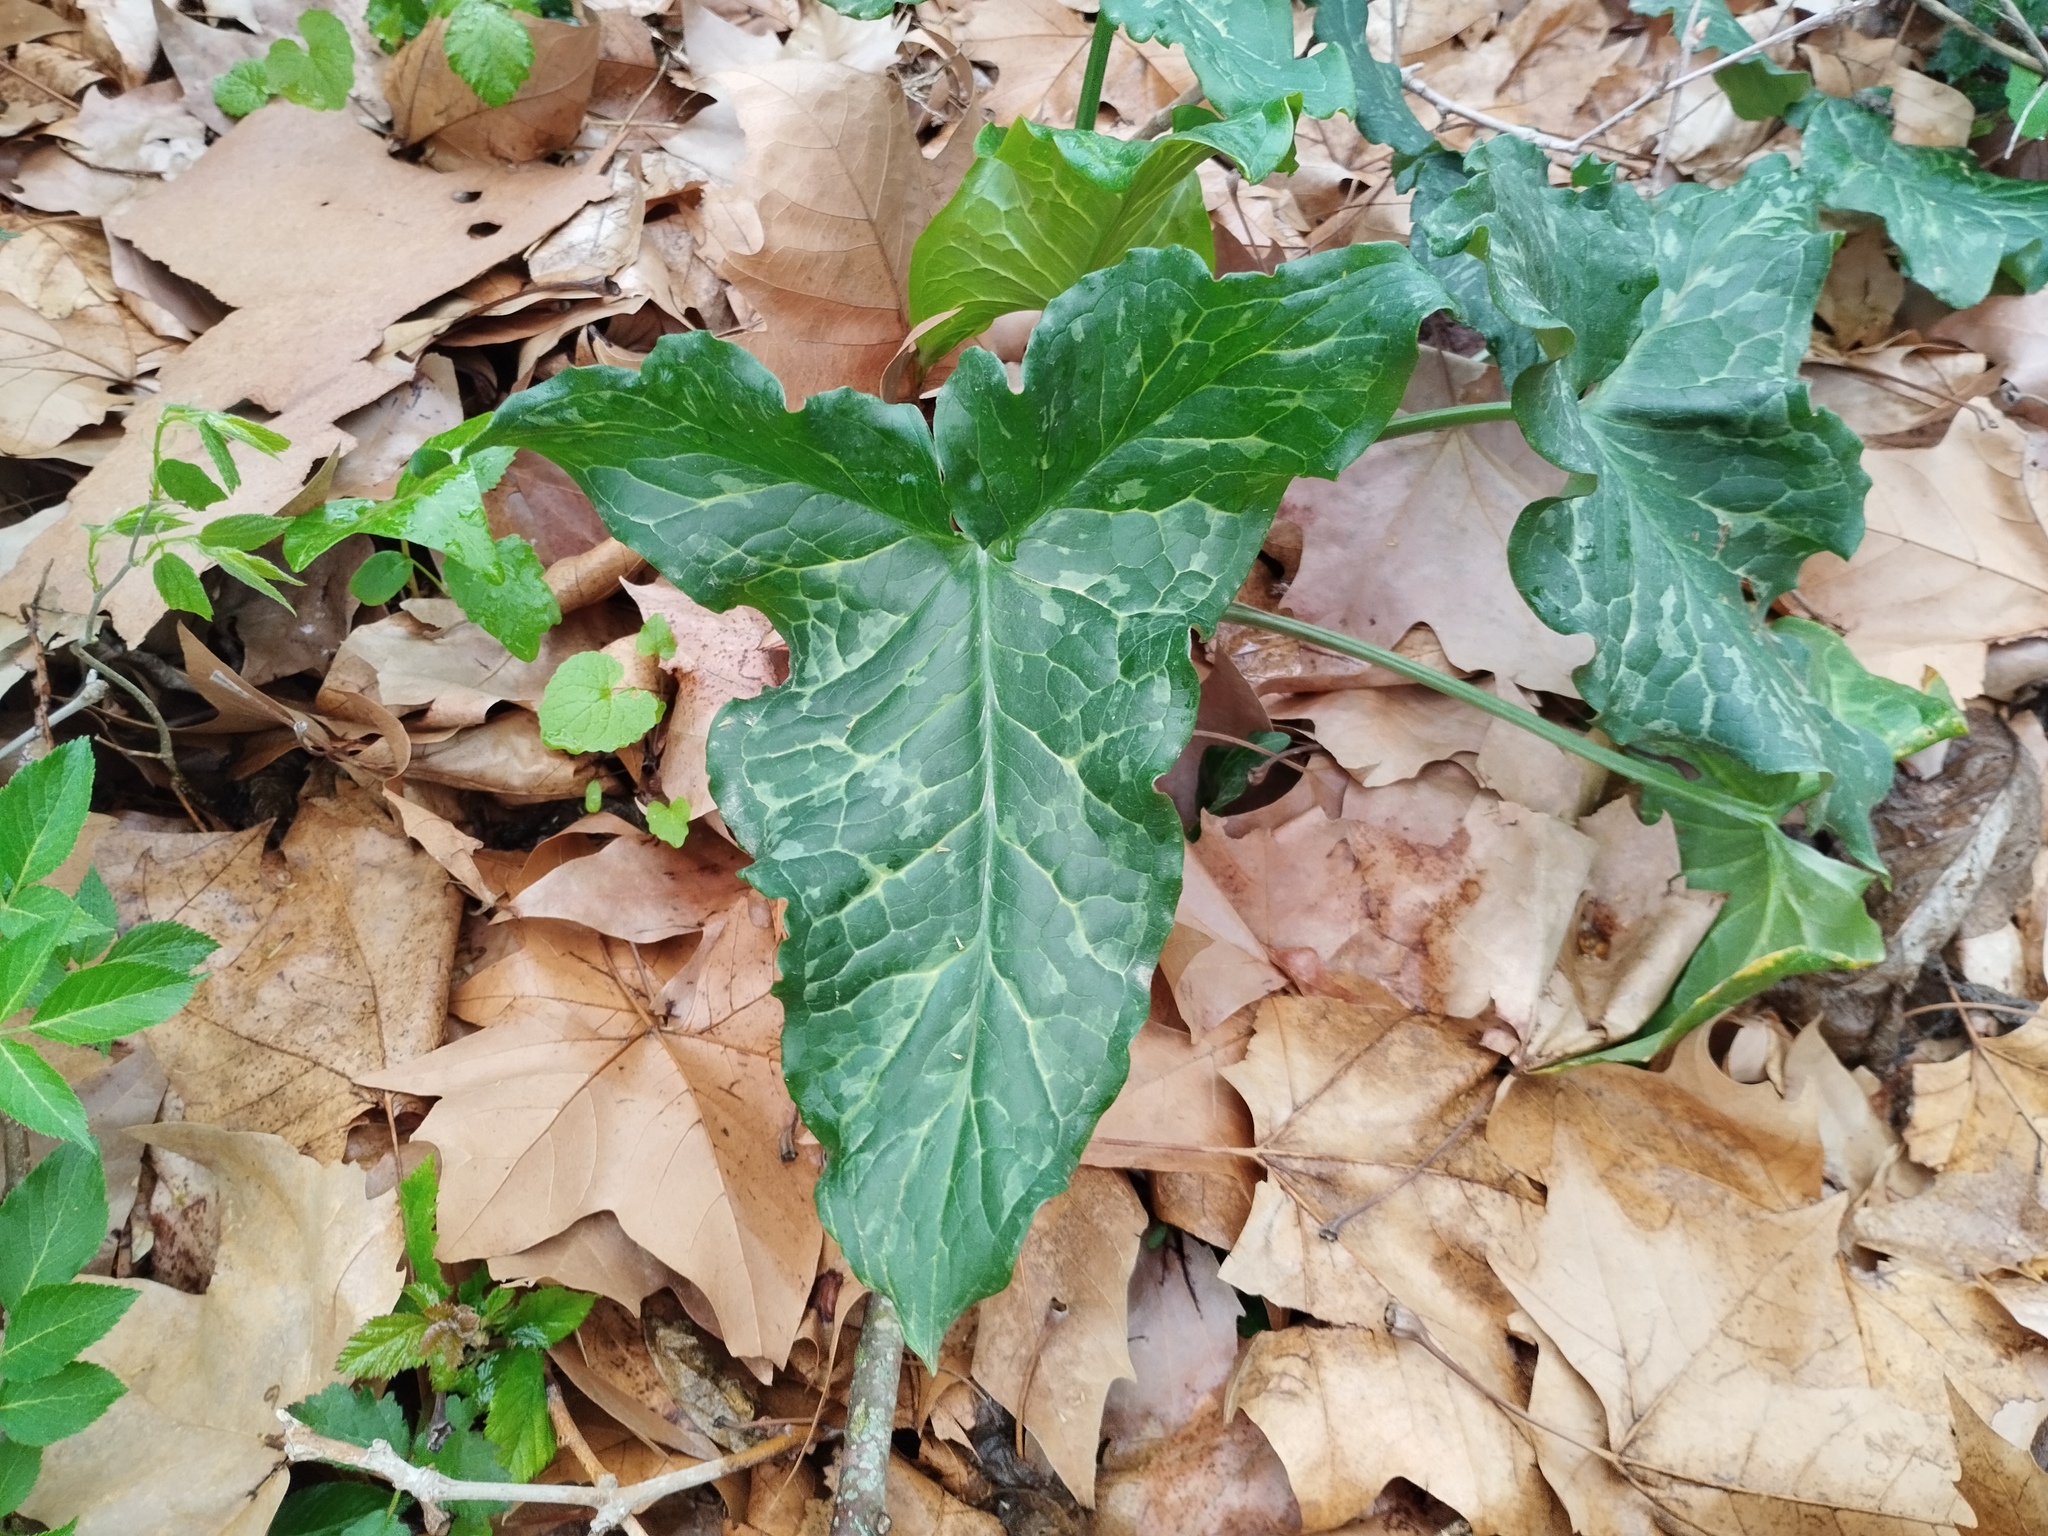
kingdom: Plantae
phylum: Tracheophyta
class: Liliopsida
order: Alismatales
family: Araceae
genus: Arum
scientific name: Arum italicum
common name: Italian lords-and-ladies
